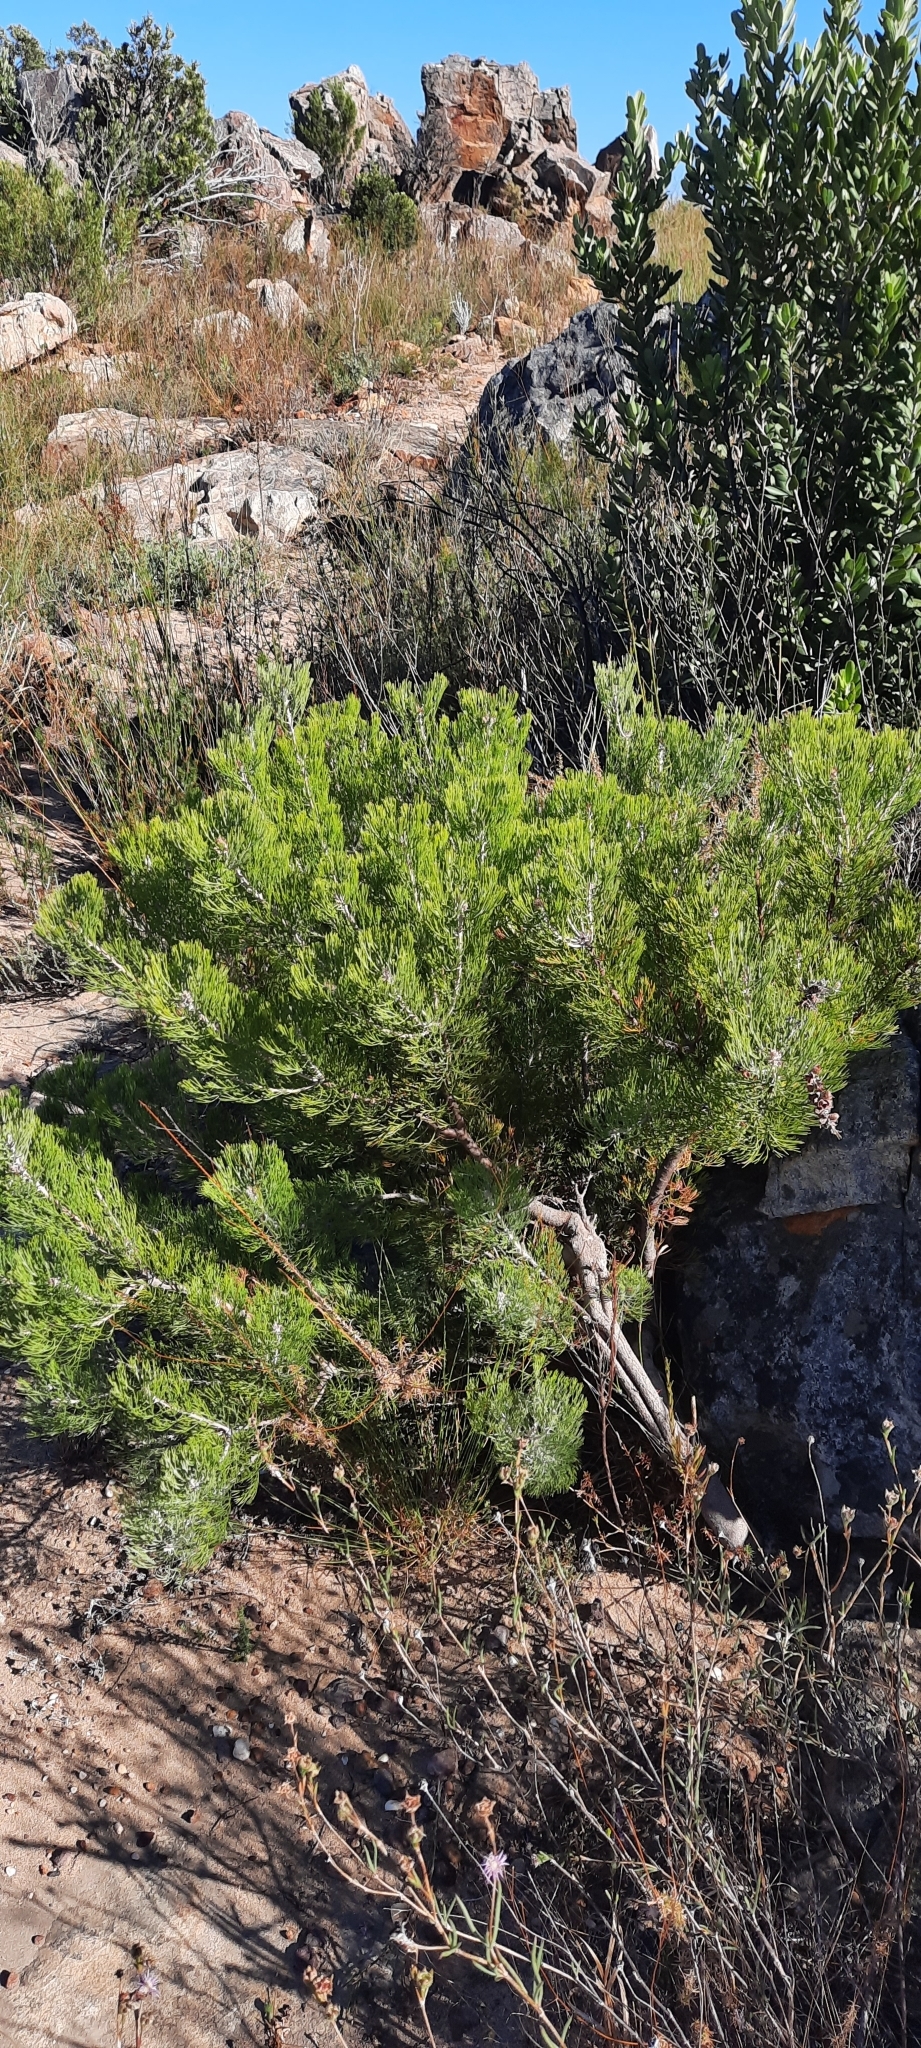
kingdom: Plantae
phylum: Tracheophyta
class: Magnoliopsida
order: Proteales
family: Proteaceae
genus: Paranomus
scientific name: Paranomus bracteolaris
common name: Bokkeveld tree sceptre
